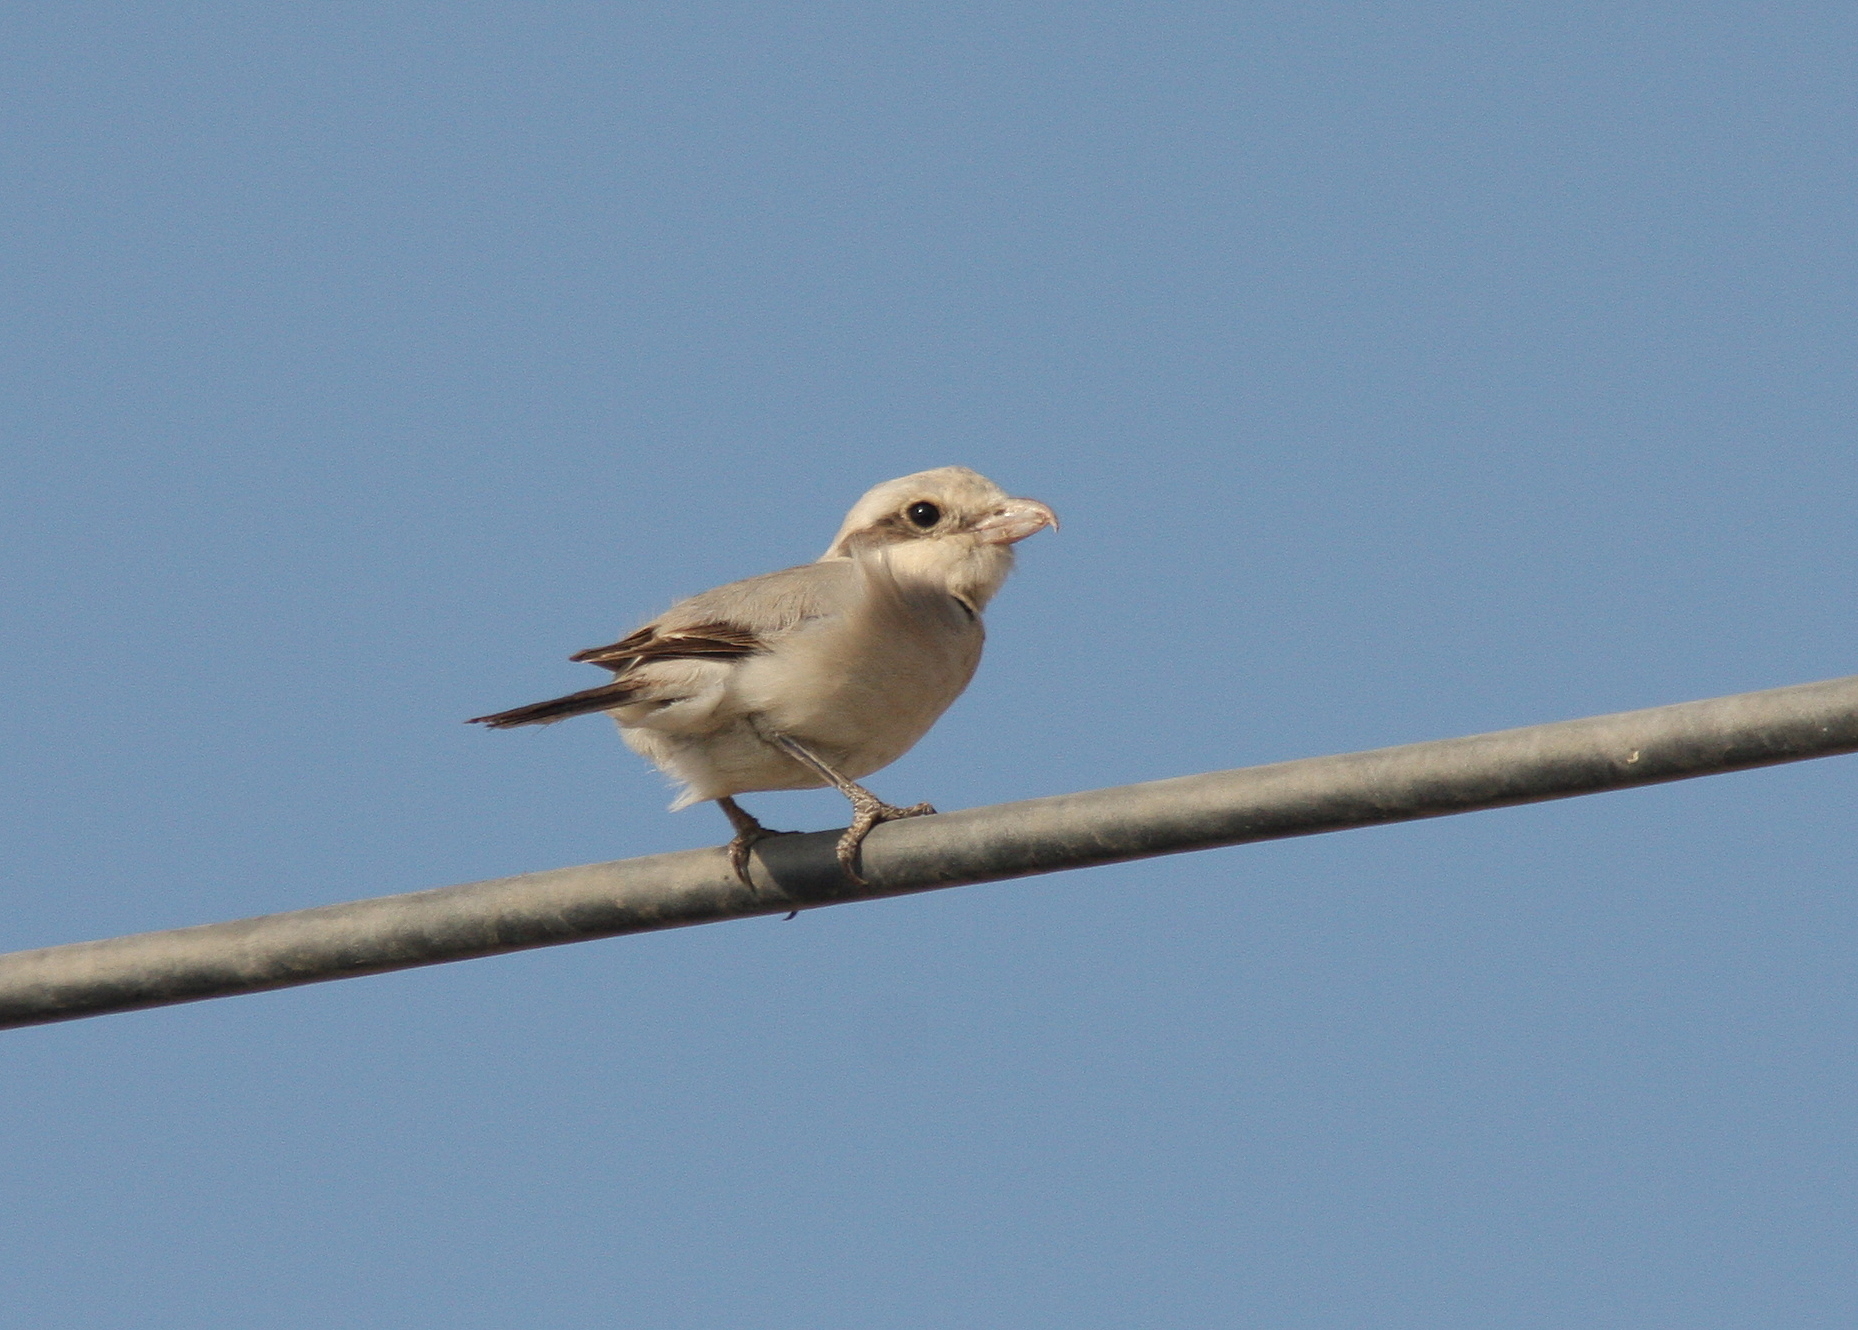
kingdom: Animalia
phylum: Chordata
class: Aves
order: Passeriformes
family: Laniidae
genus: Lanius
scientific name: Lanius excubitor
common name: Great grey shrike
